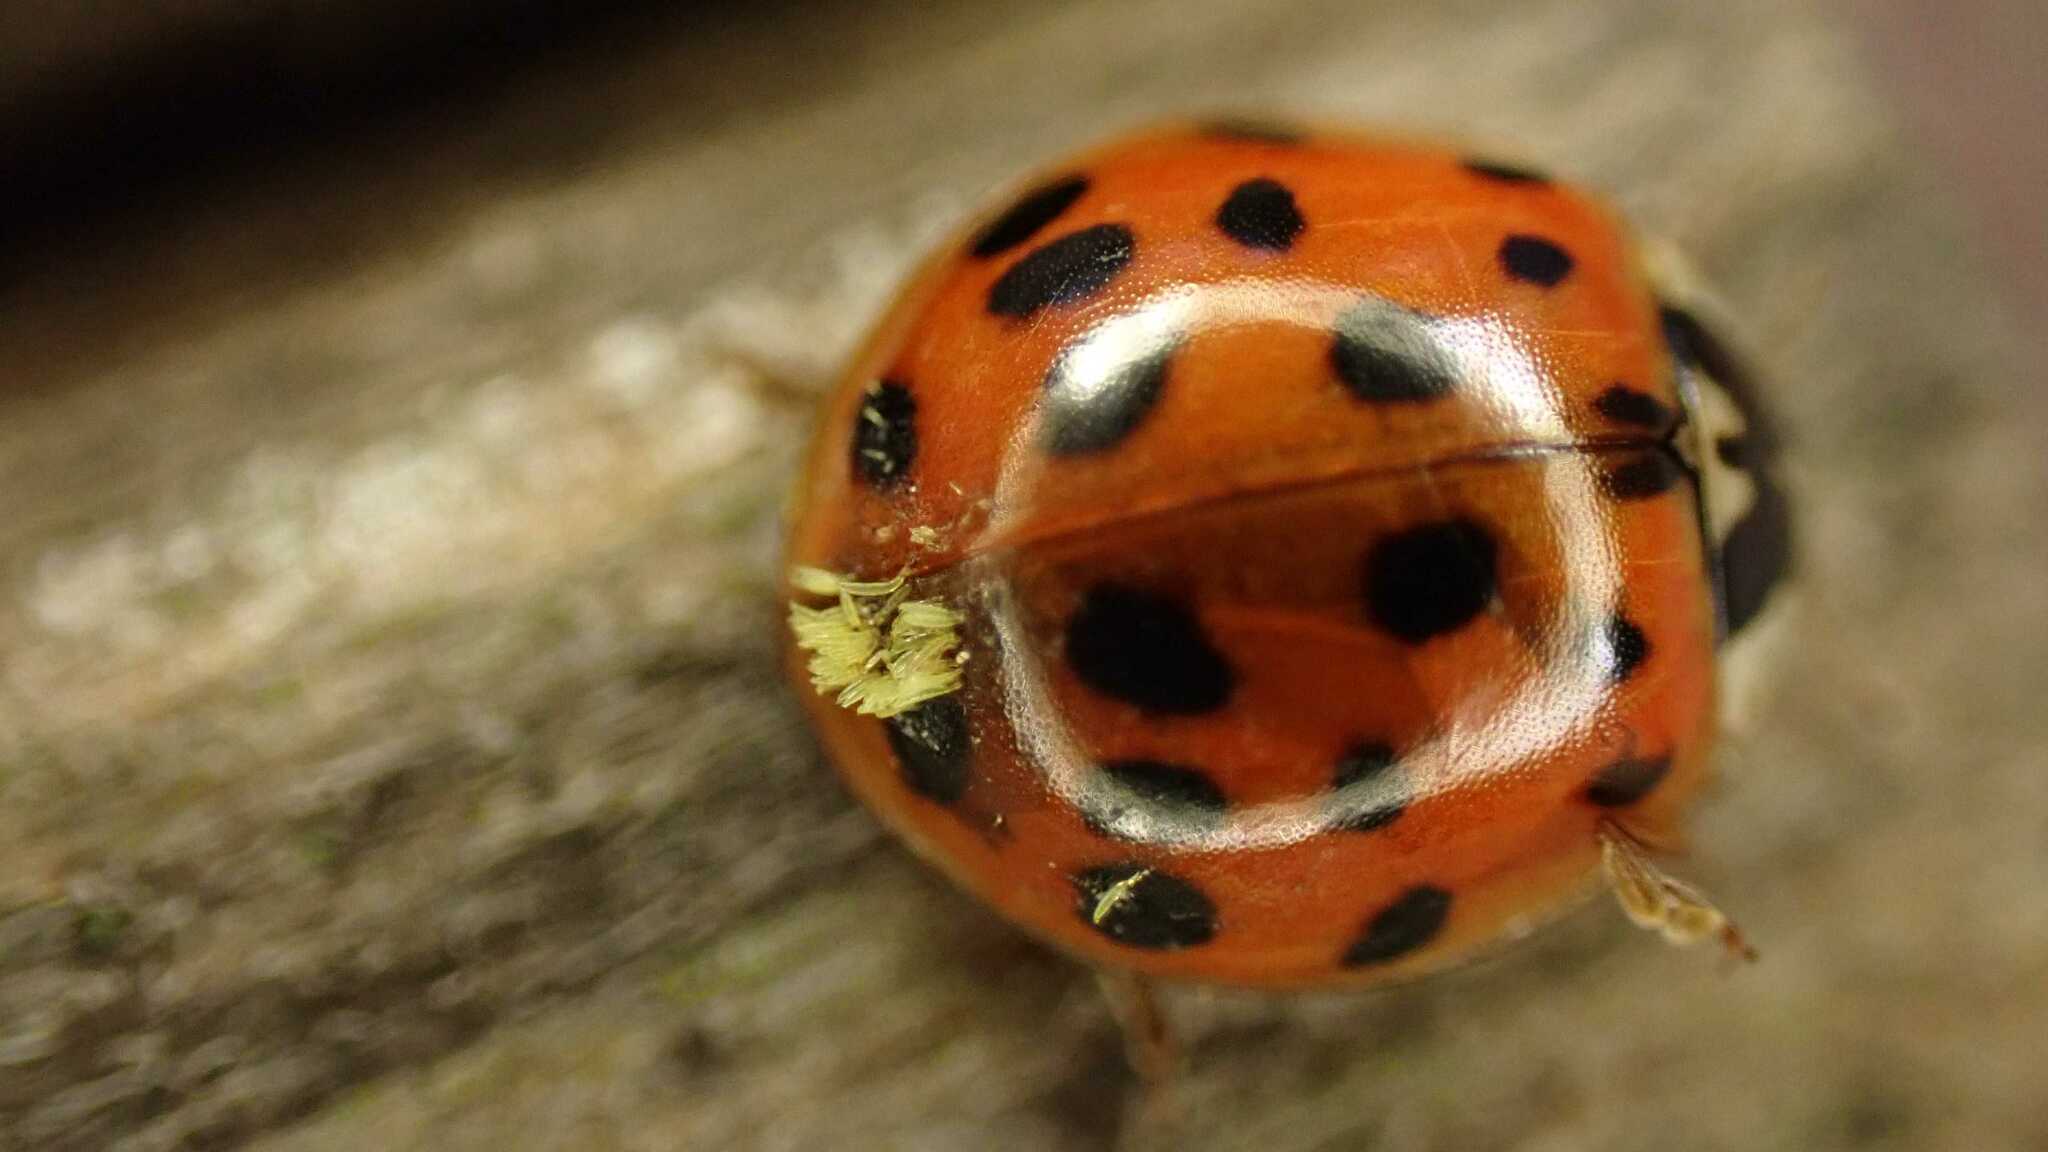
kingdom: Fungi
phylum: Ascomycota
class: Laboulbeniomycetes
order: Laboulbeniales
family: Laboulbeniaceae
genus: Hesperomyces
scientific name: Hesperomyces harmoniae
